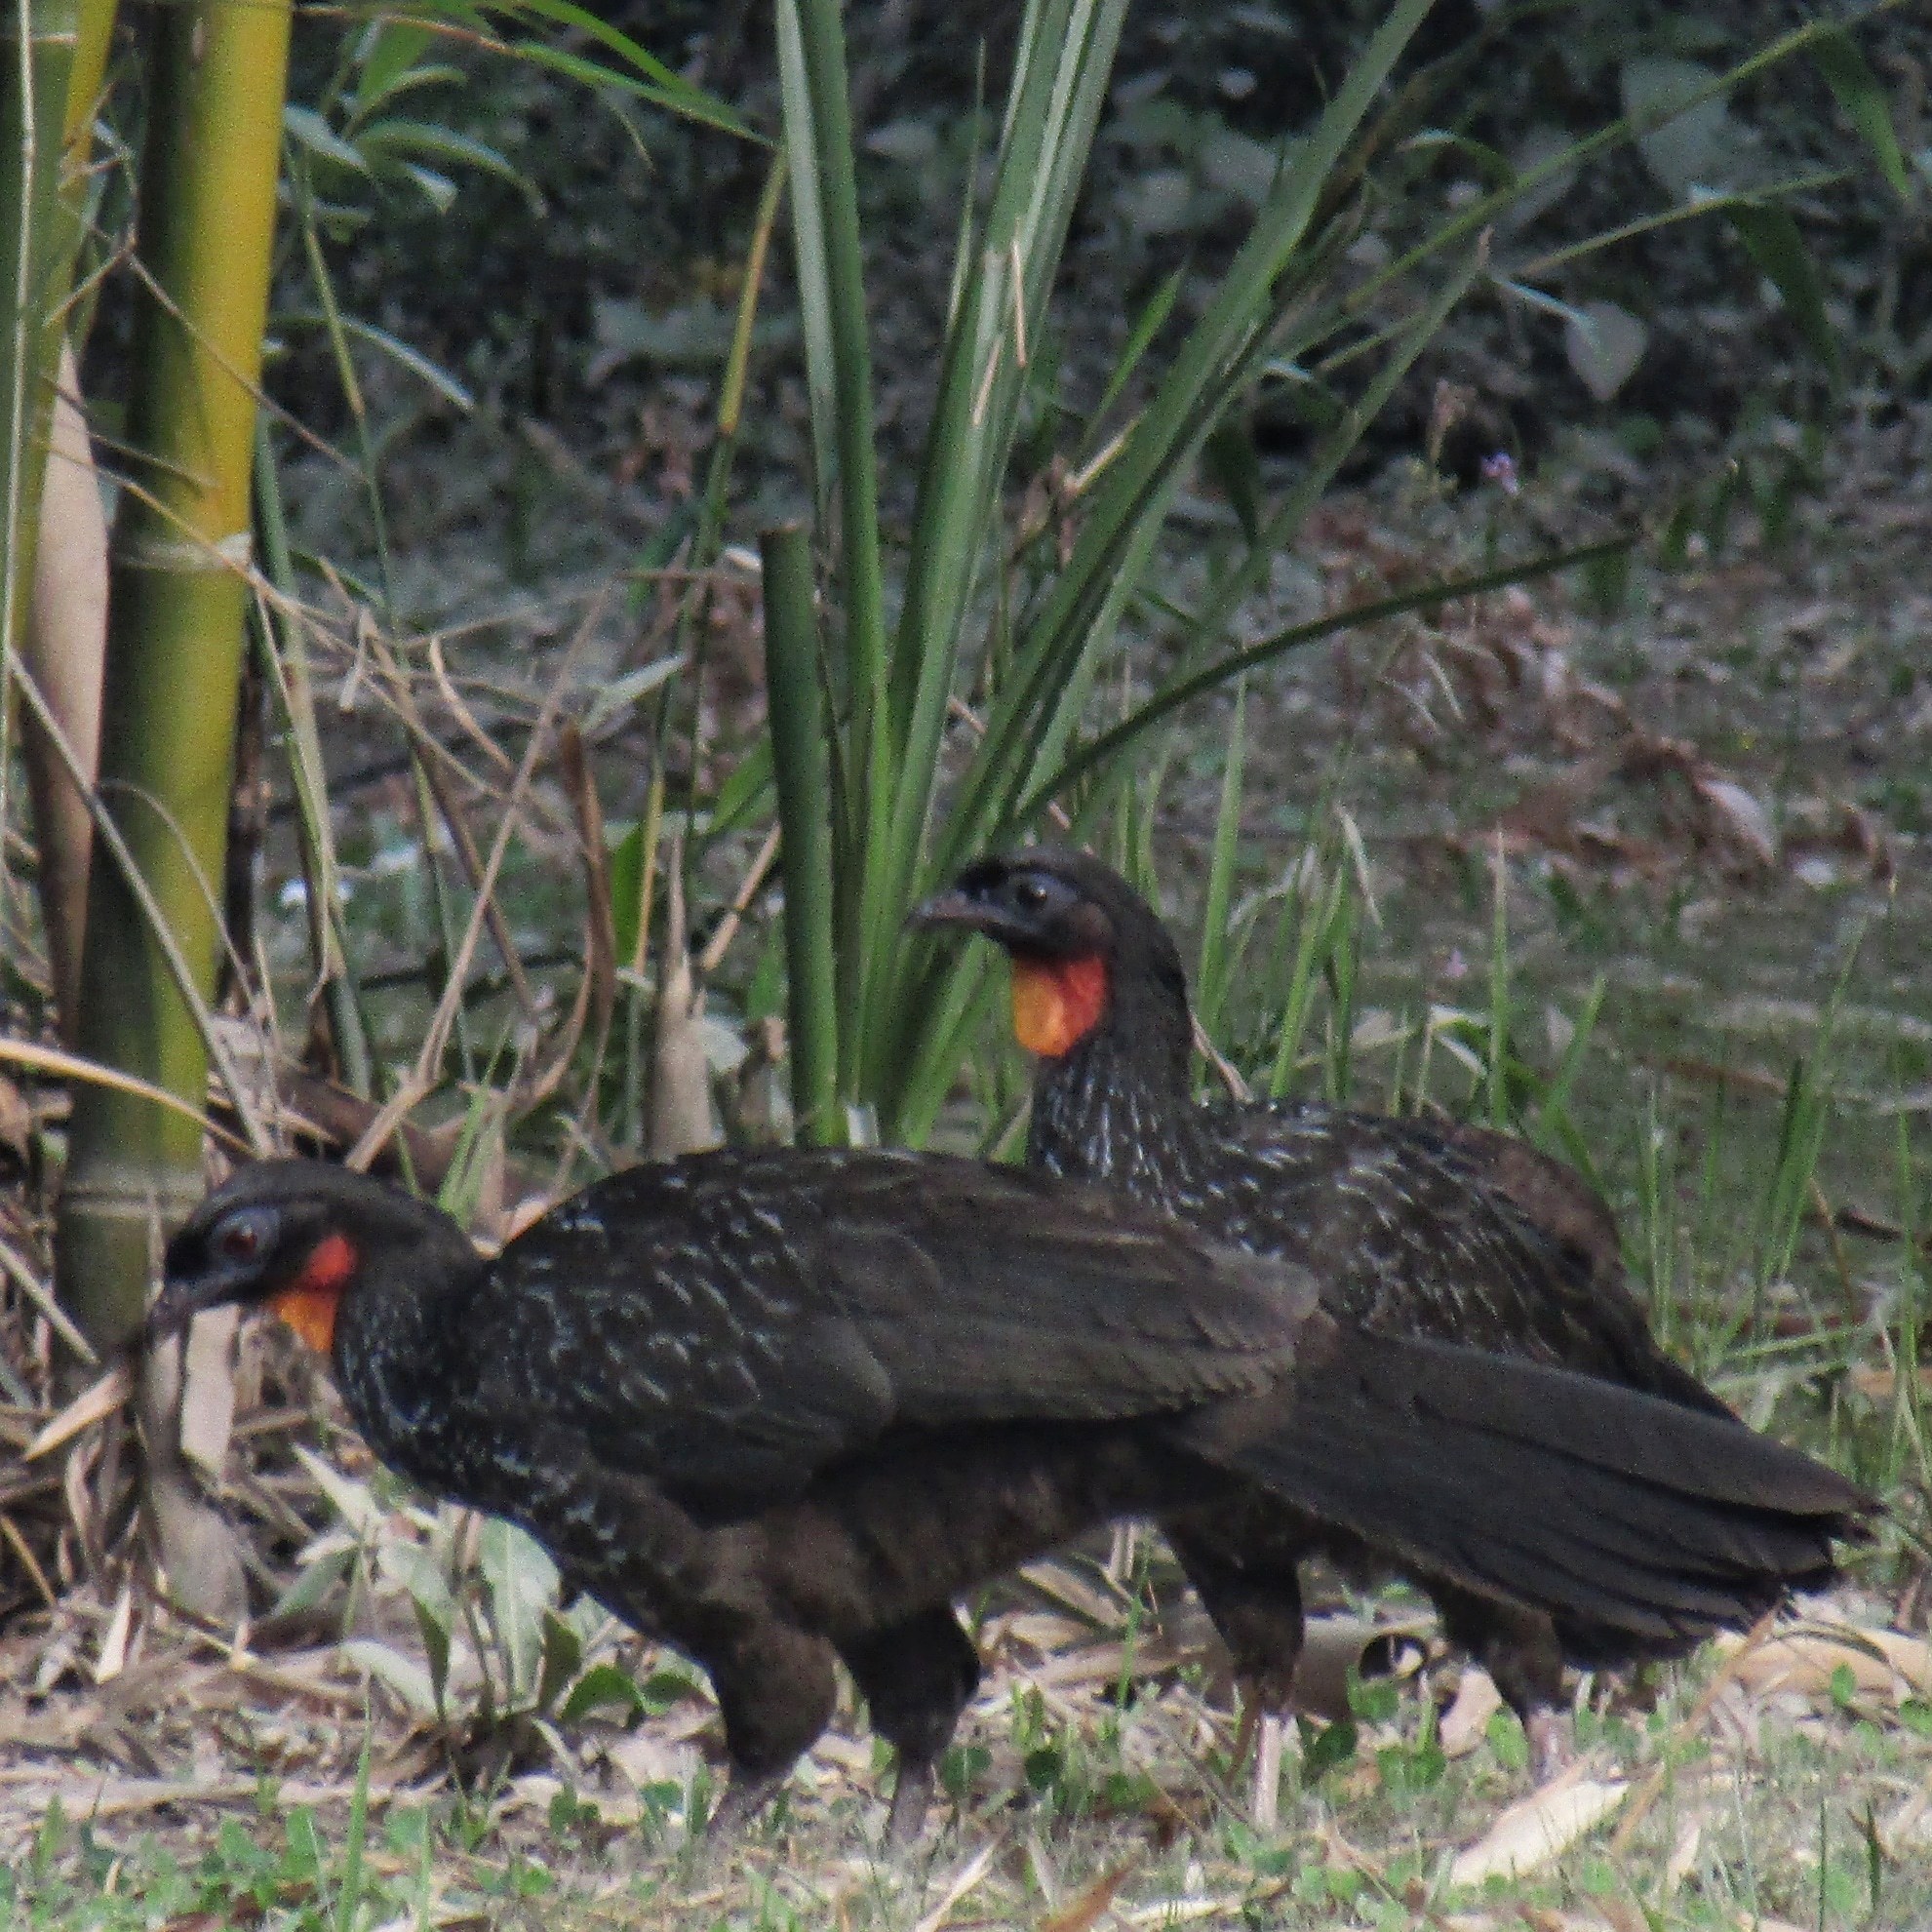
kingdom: Animalia
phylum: Chordata
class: Aves
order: Galliformes
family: Cracidae
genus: Penelope
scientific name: Penelope obscura
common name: Dusky-legged guan
